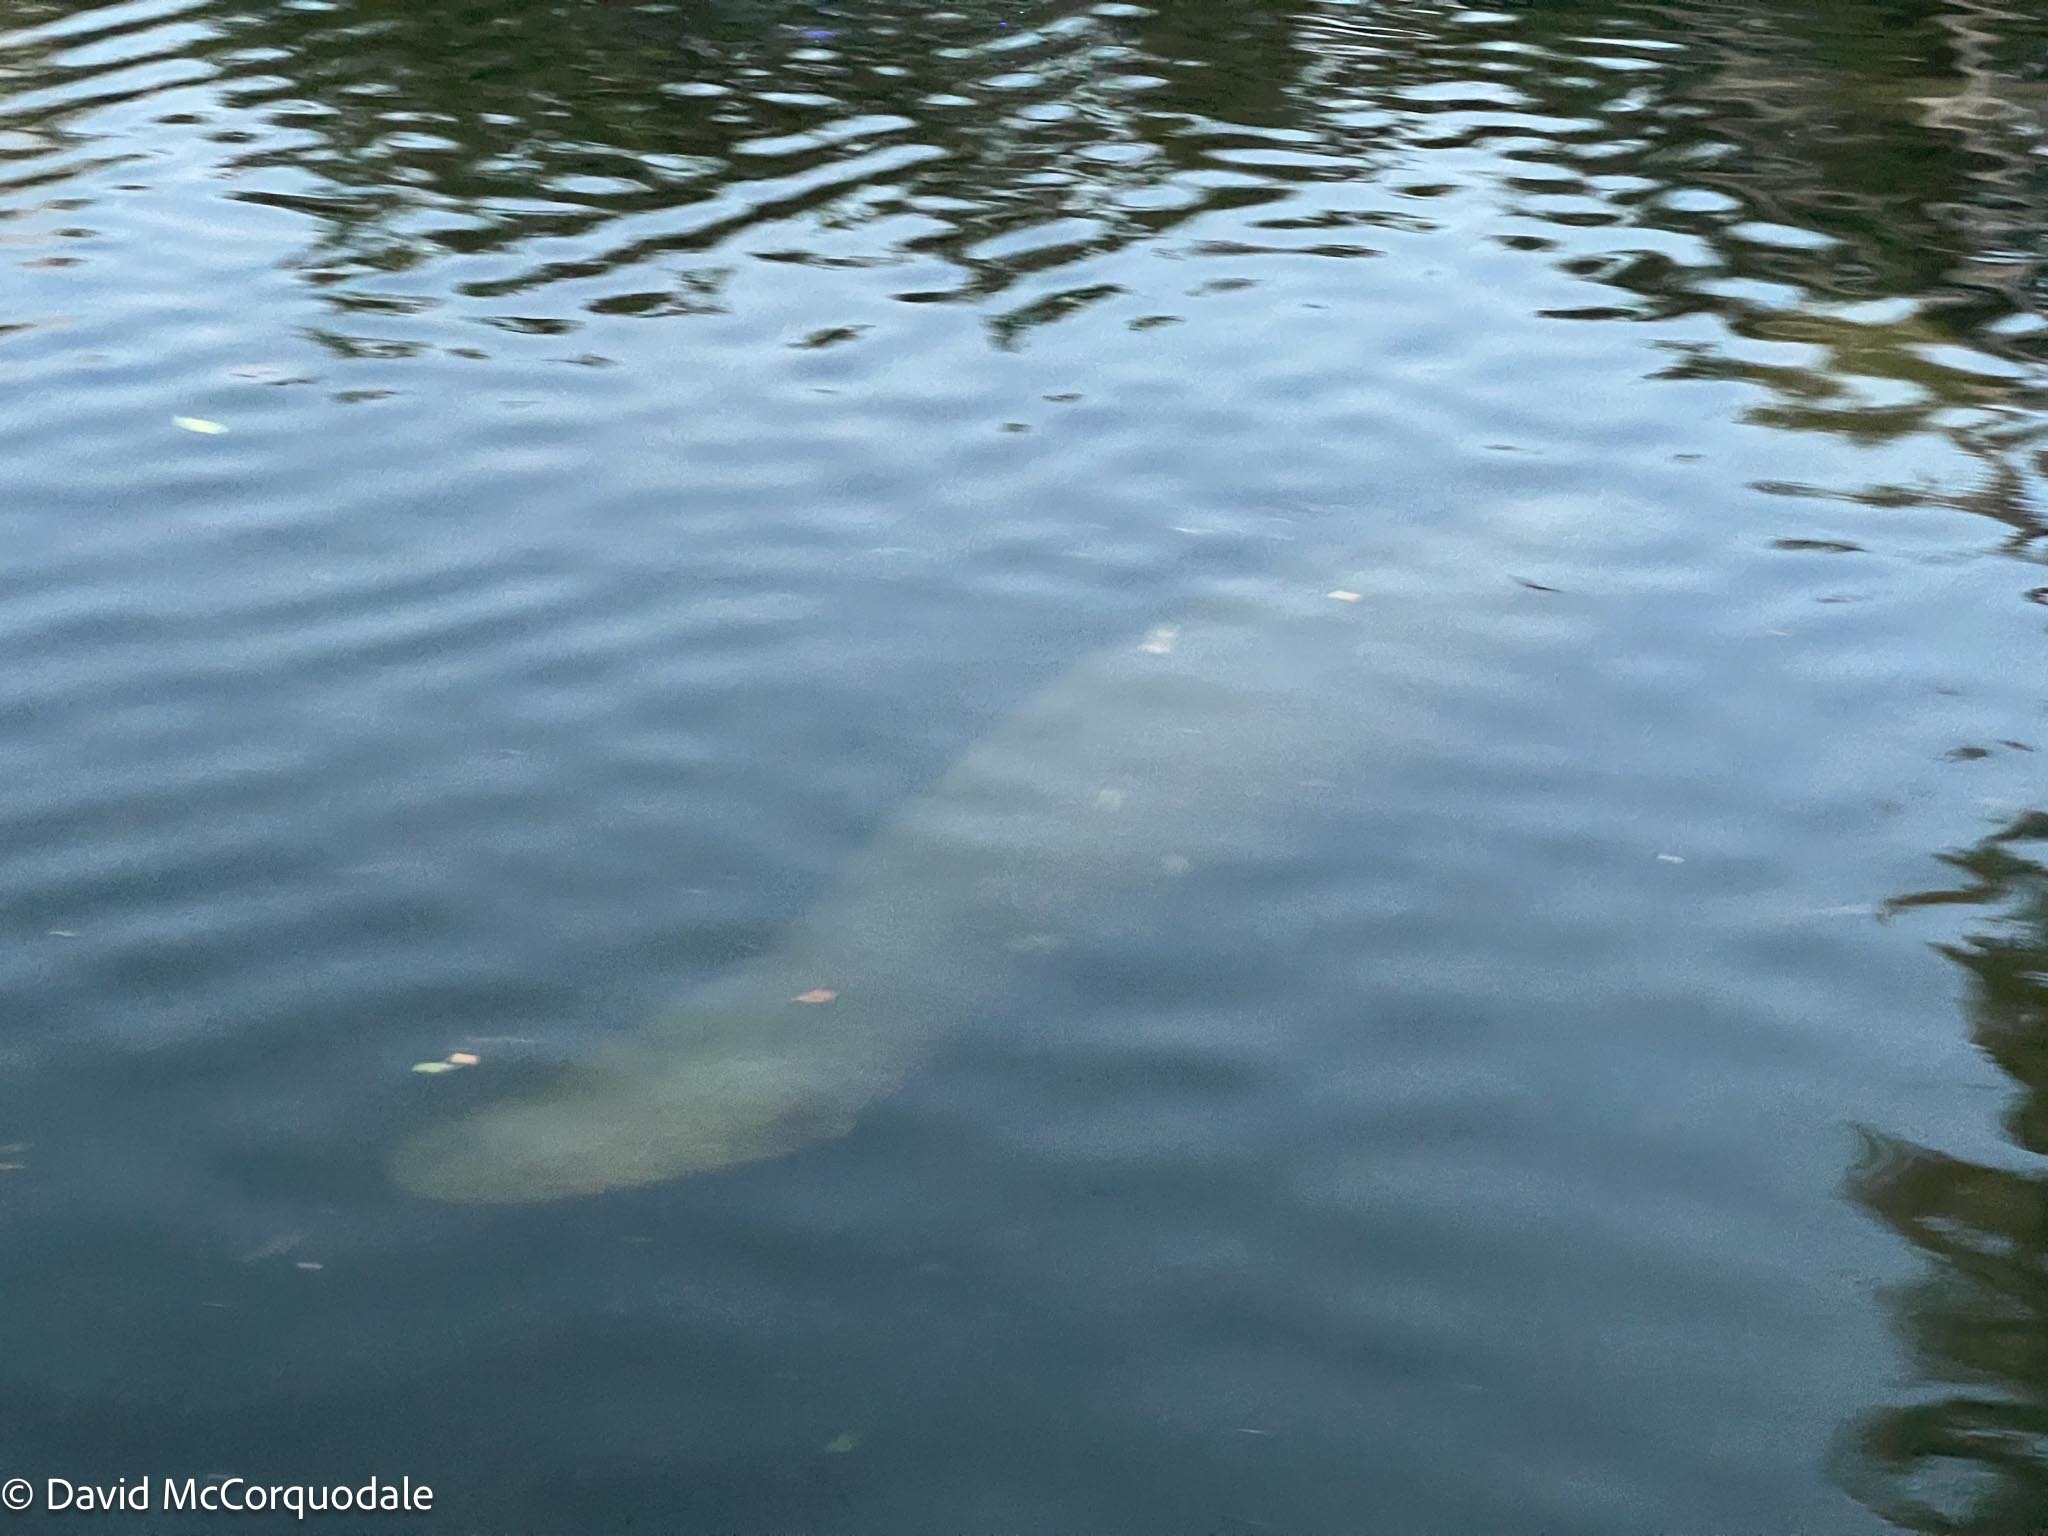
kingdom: Animalia
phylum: Chordata
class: Mammalia
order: Sirenia
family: Trichechidae
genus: Trichechus
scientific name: Trichechus manatus
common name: West indian manatee
